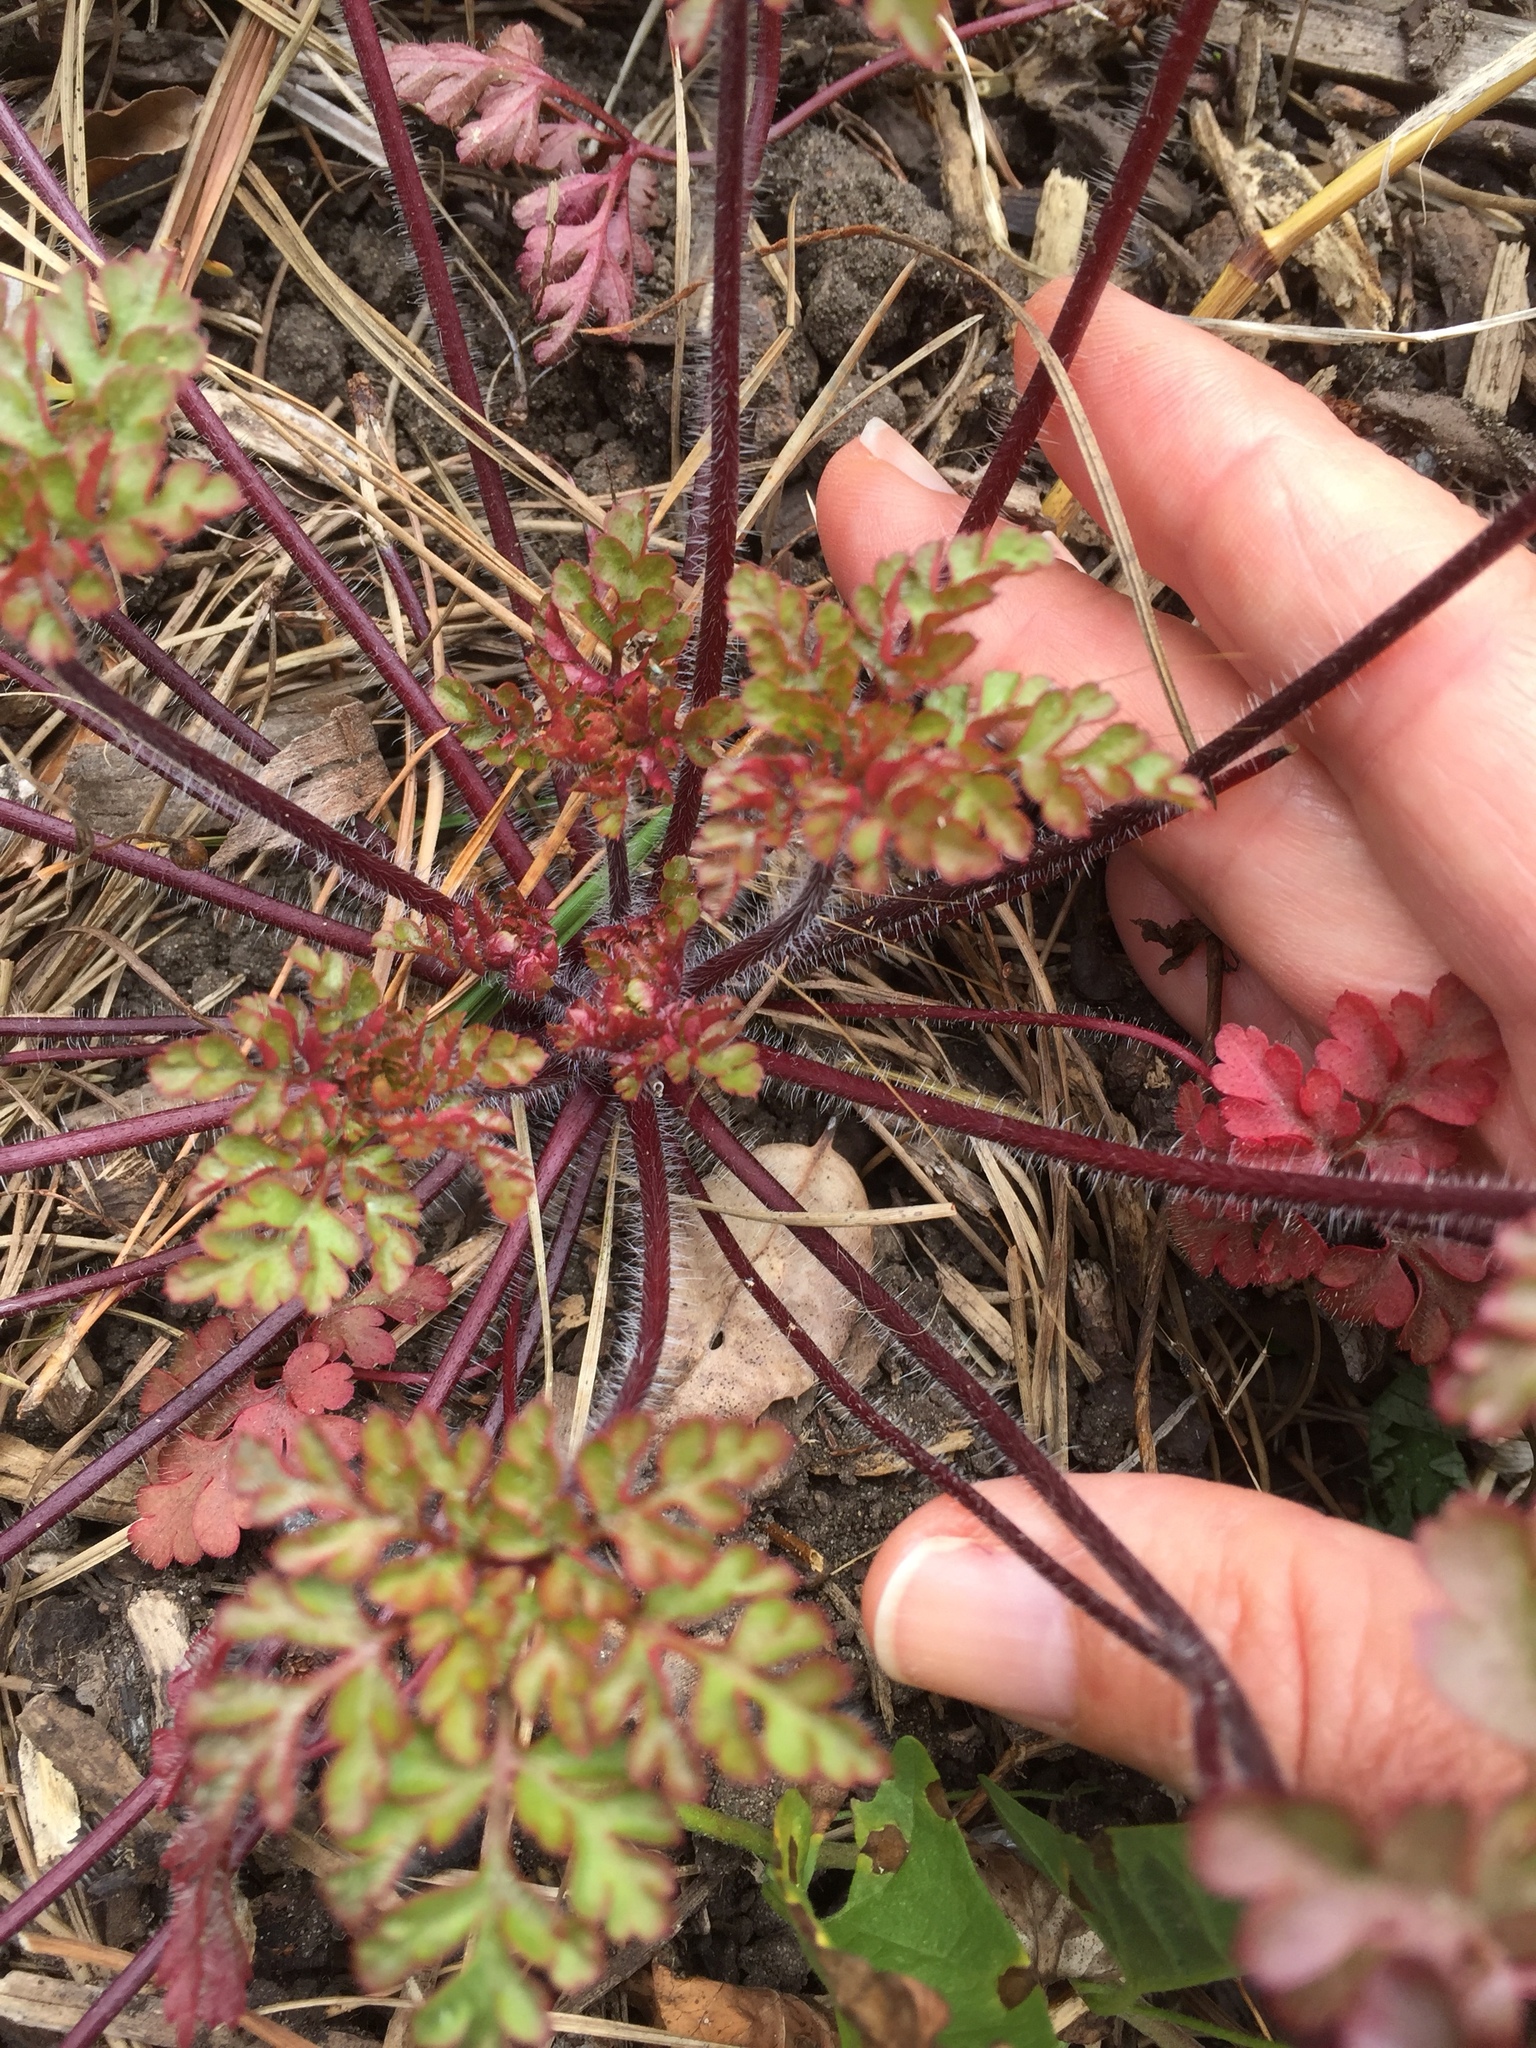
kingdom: Plantae
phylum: Tracheophyta
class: Magnoliopsida
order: Geraniales
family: Geraniaceae
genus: Geranium
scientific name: Geranium
